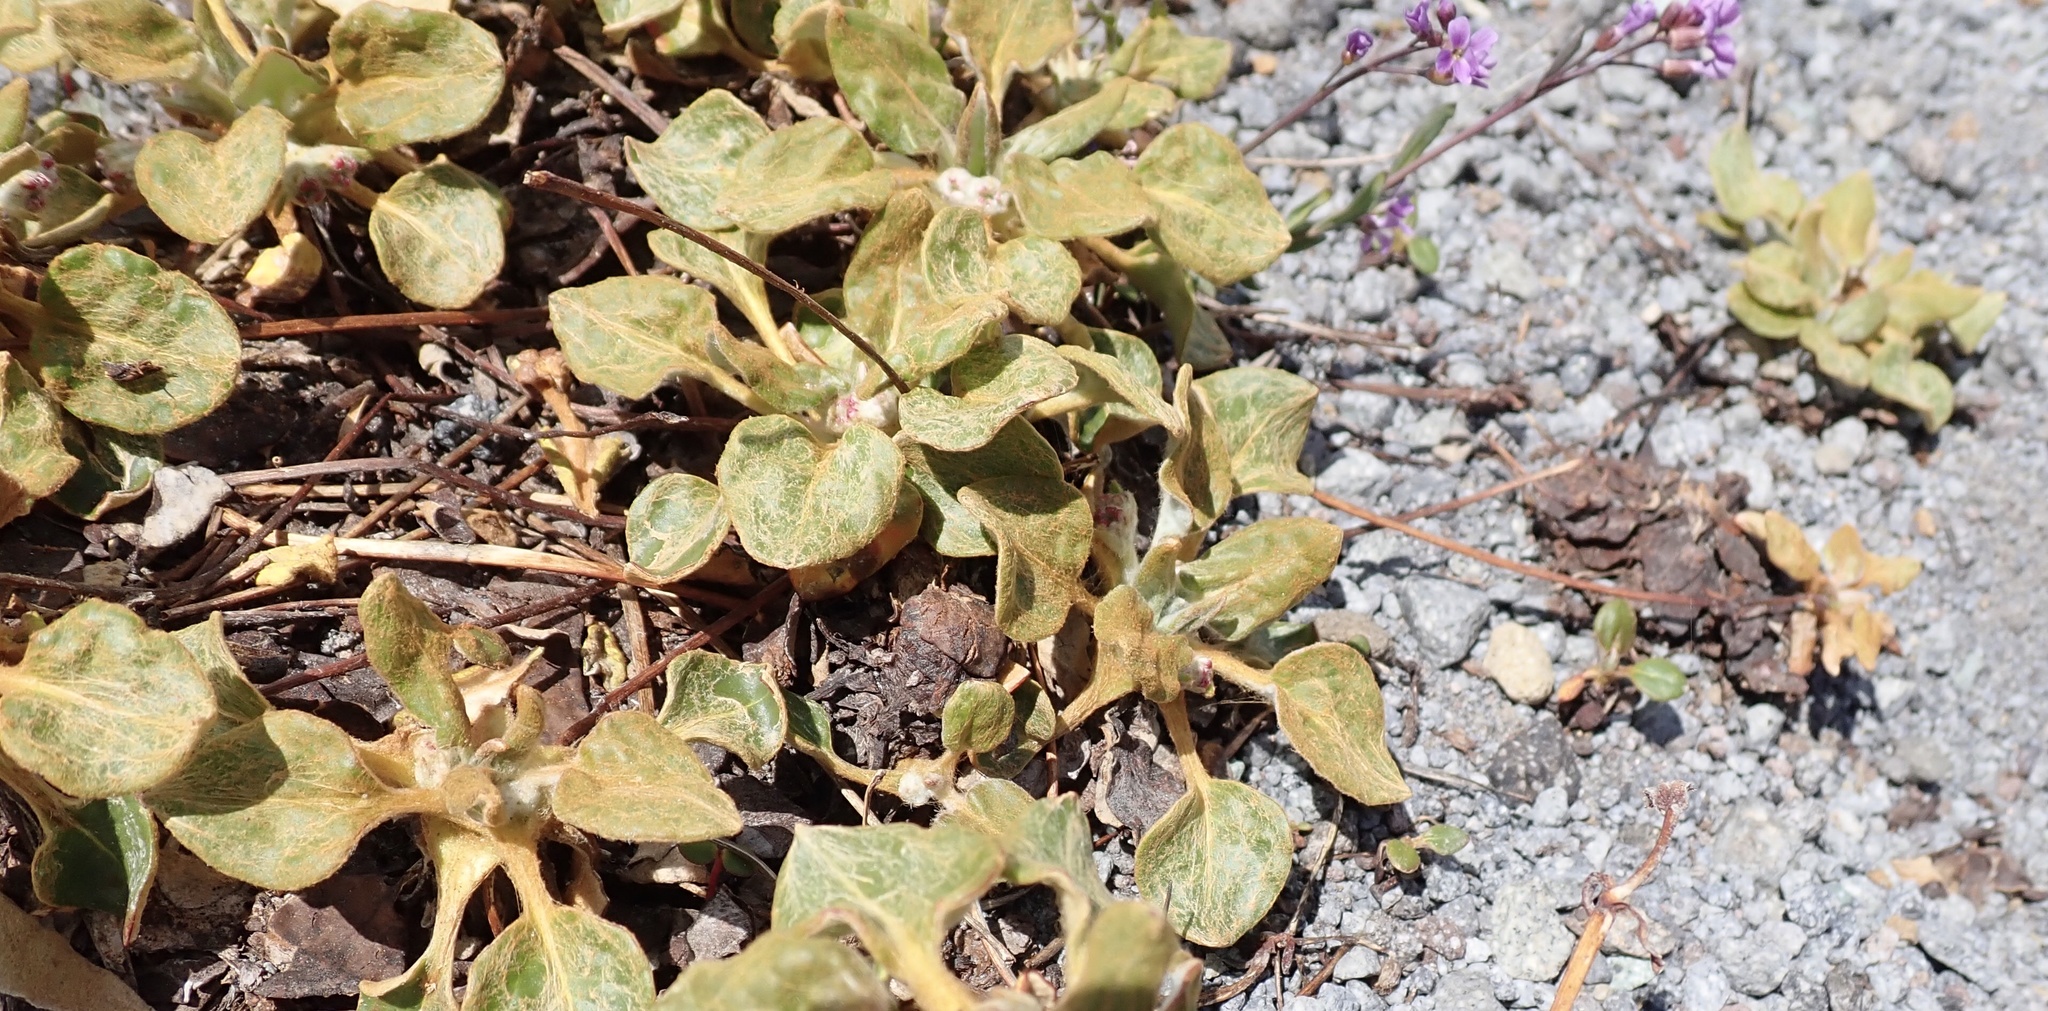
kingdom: Plantae
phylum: Tracheophyta
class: Magnoliopsida
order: Caryophyllales
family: Polygonaceae
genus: Eriogonum
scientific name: Eriogonum pyrolifolium
